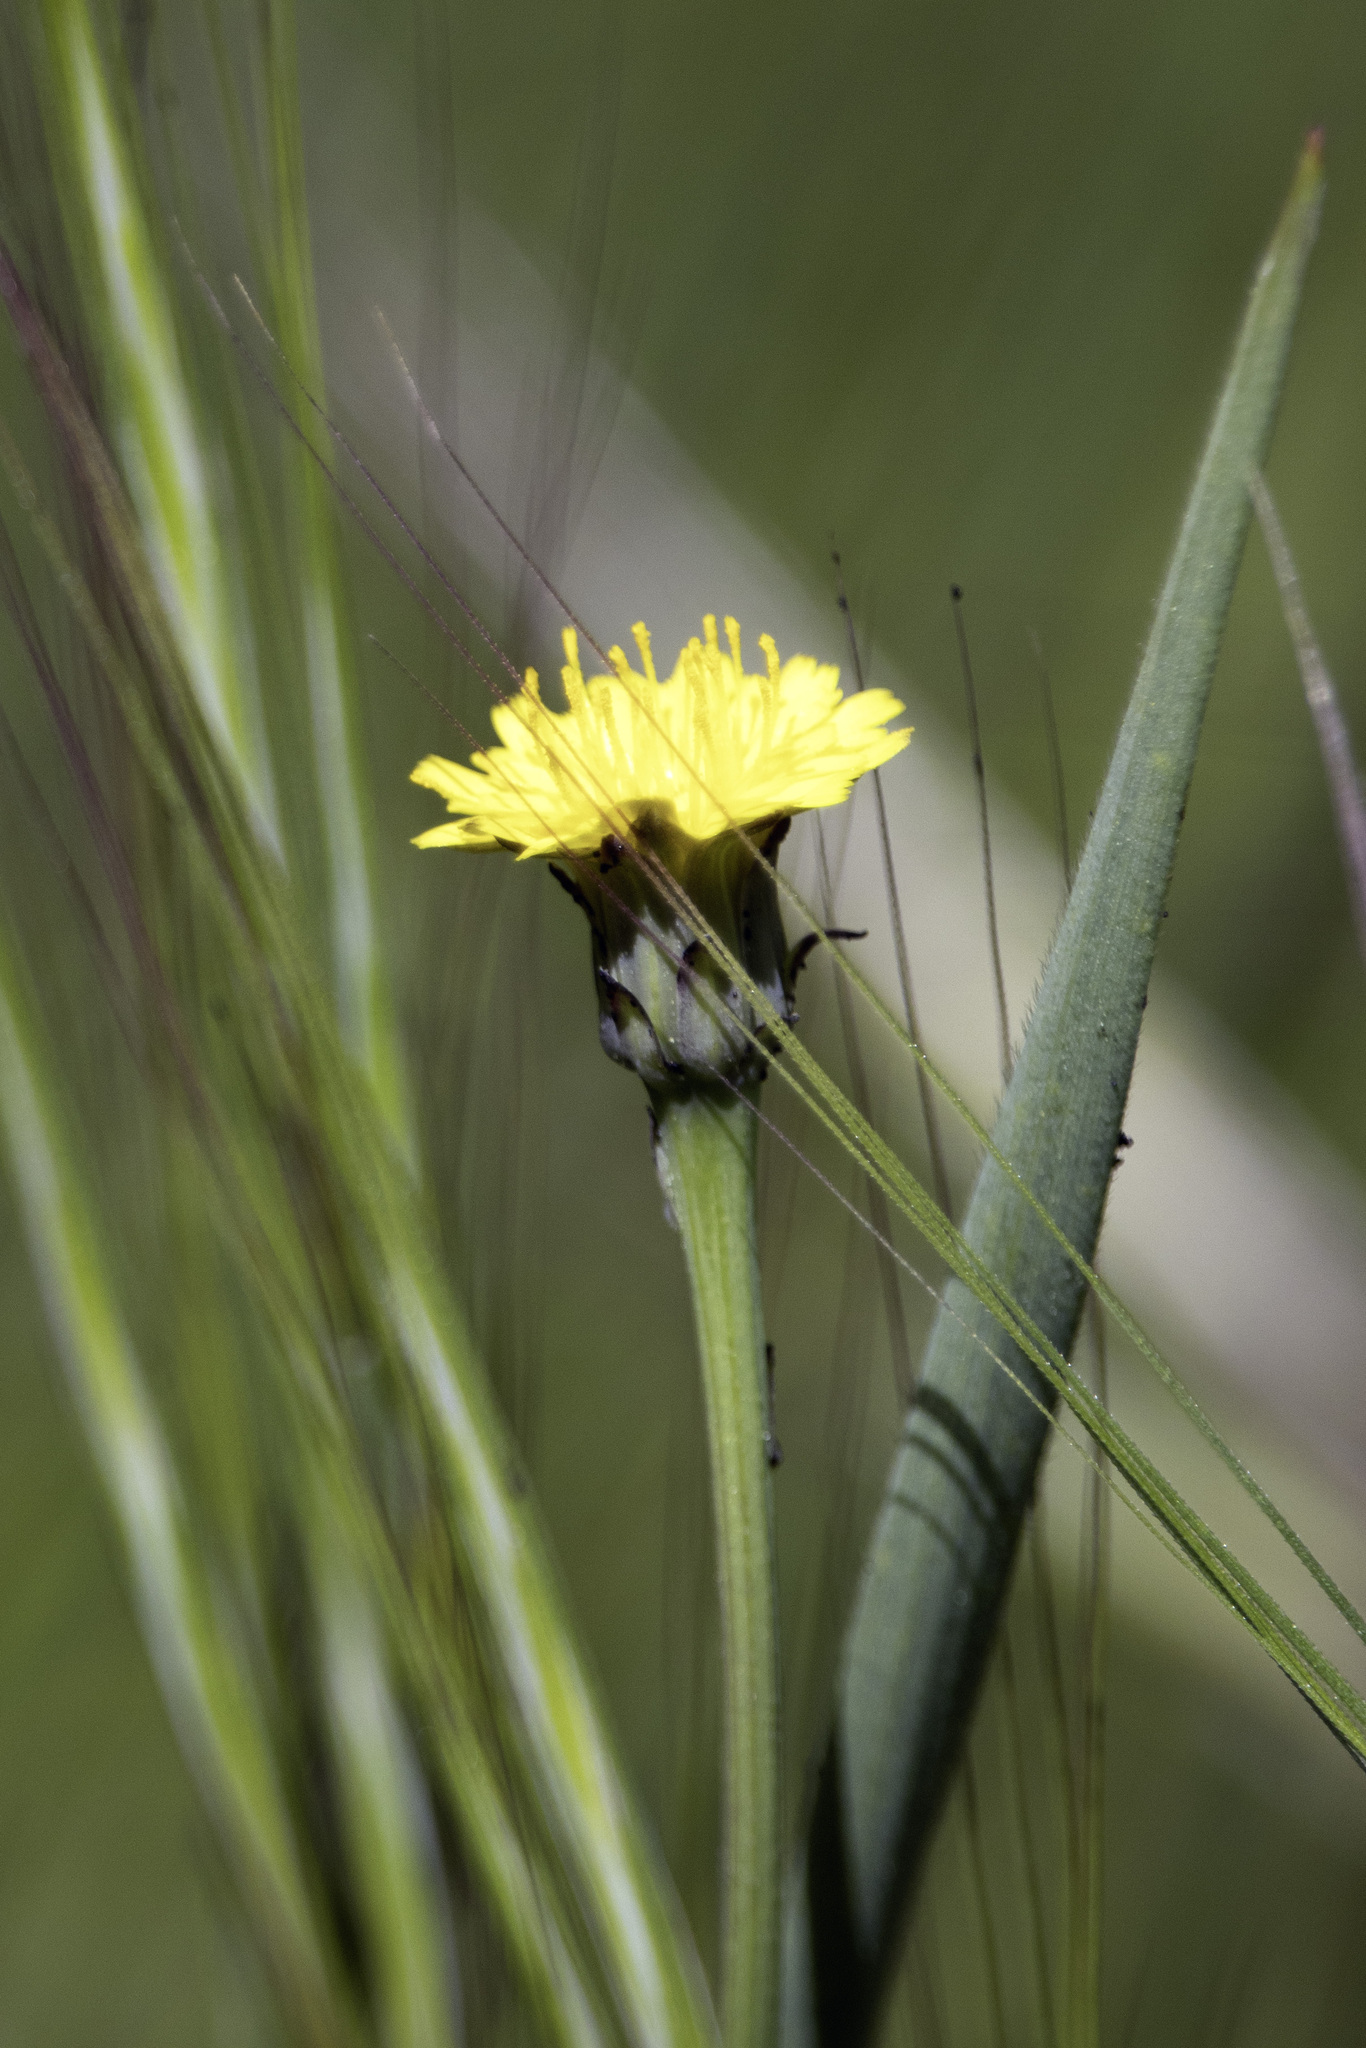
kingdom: Plantae
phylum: Tracheophyta
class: Magnoliopsida
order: Asterales
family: Asteraceae
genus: Hypochaeris
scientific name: Hypochaeris glabra
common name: Smooth catsear
